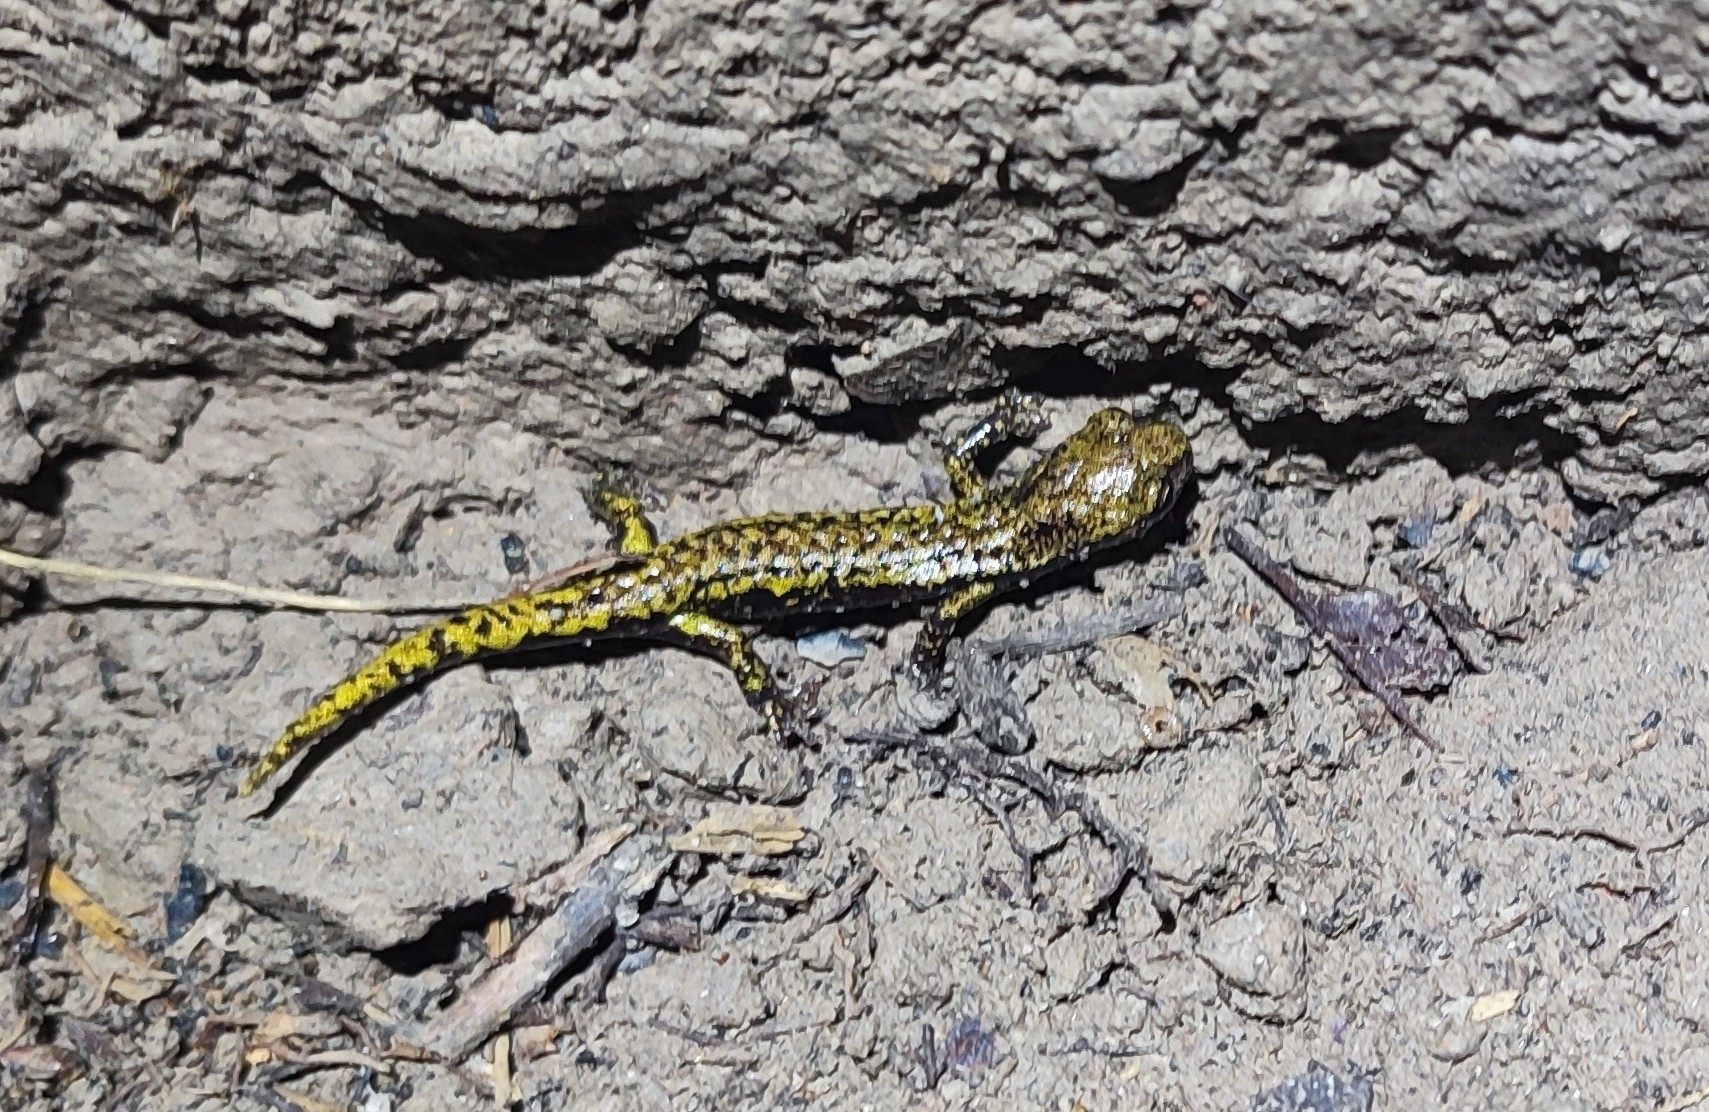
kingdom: Animalia
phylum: Chordata
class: Amphibia
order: Caudata
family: Plethodontidae
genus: Speleomantes
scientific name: Speleomantes strinatii
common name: French cave salamander
